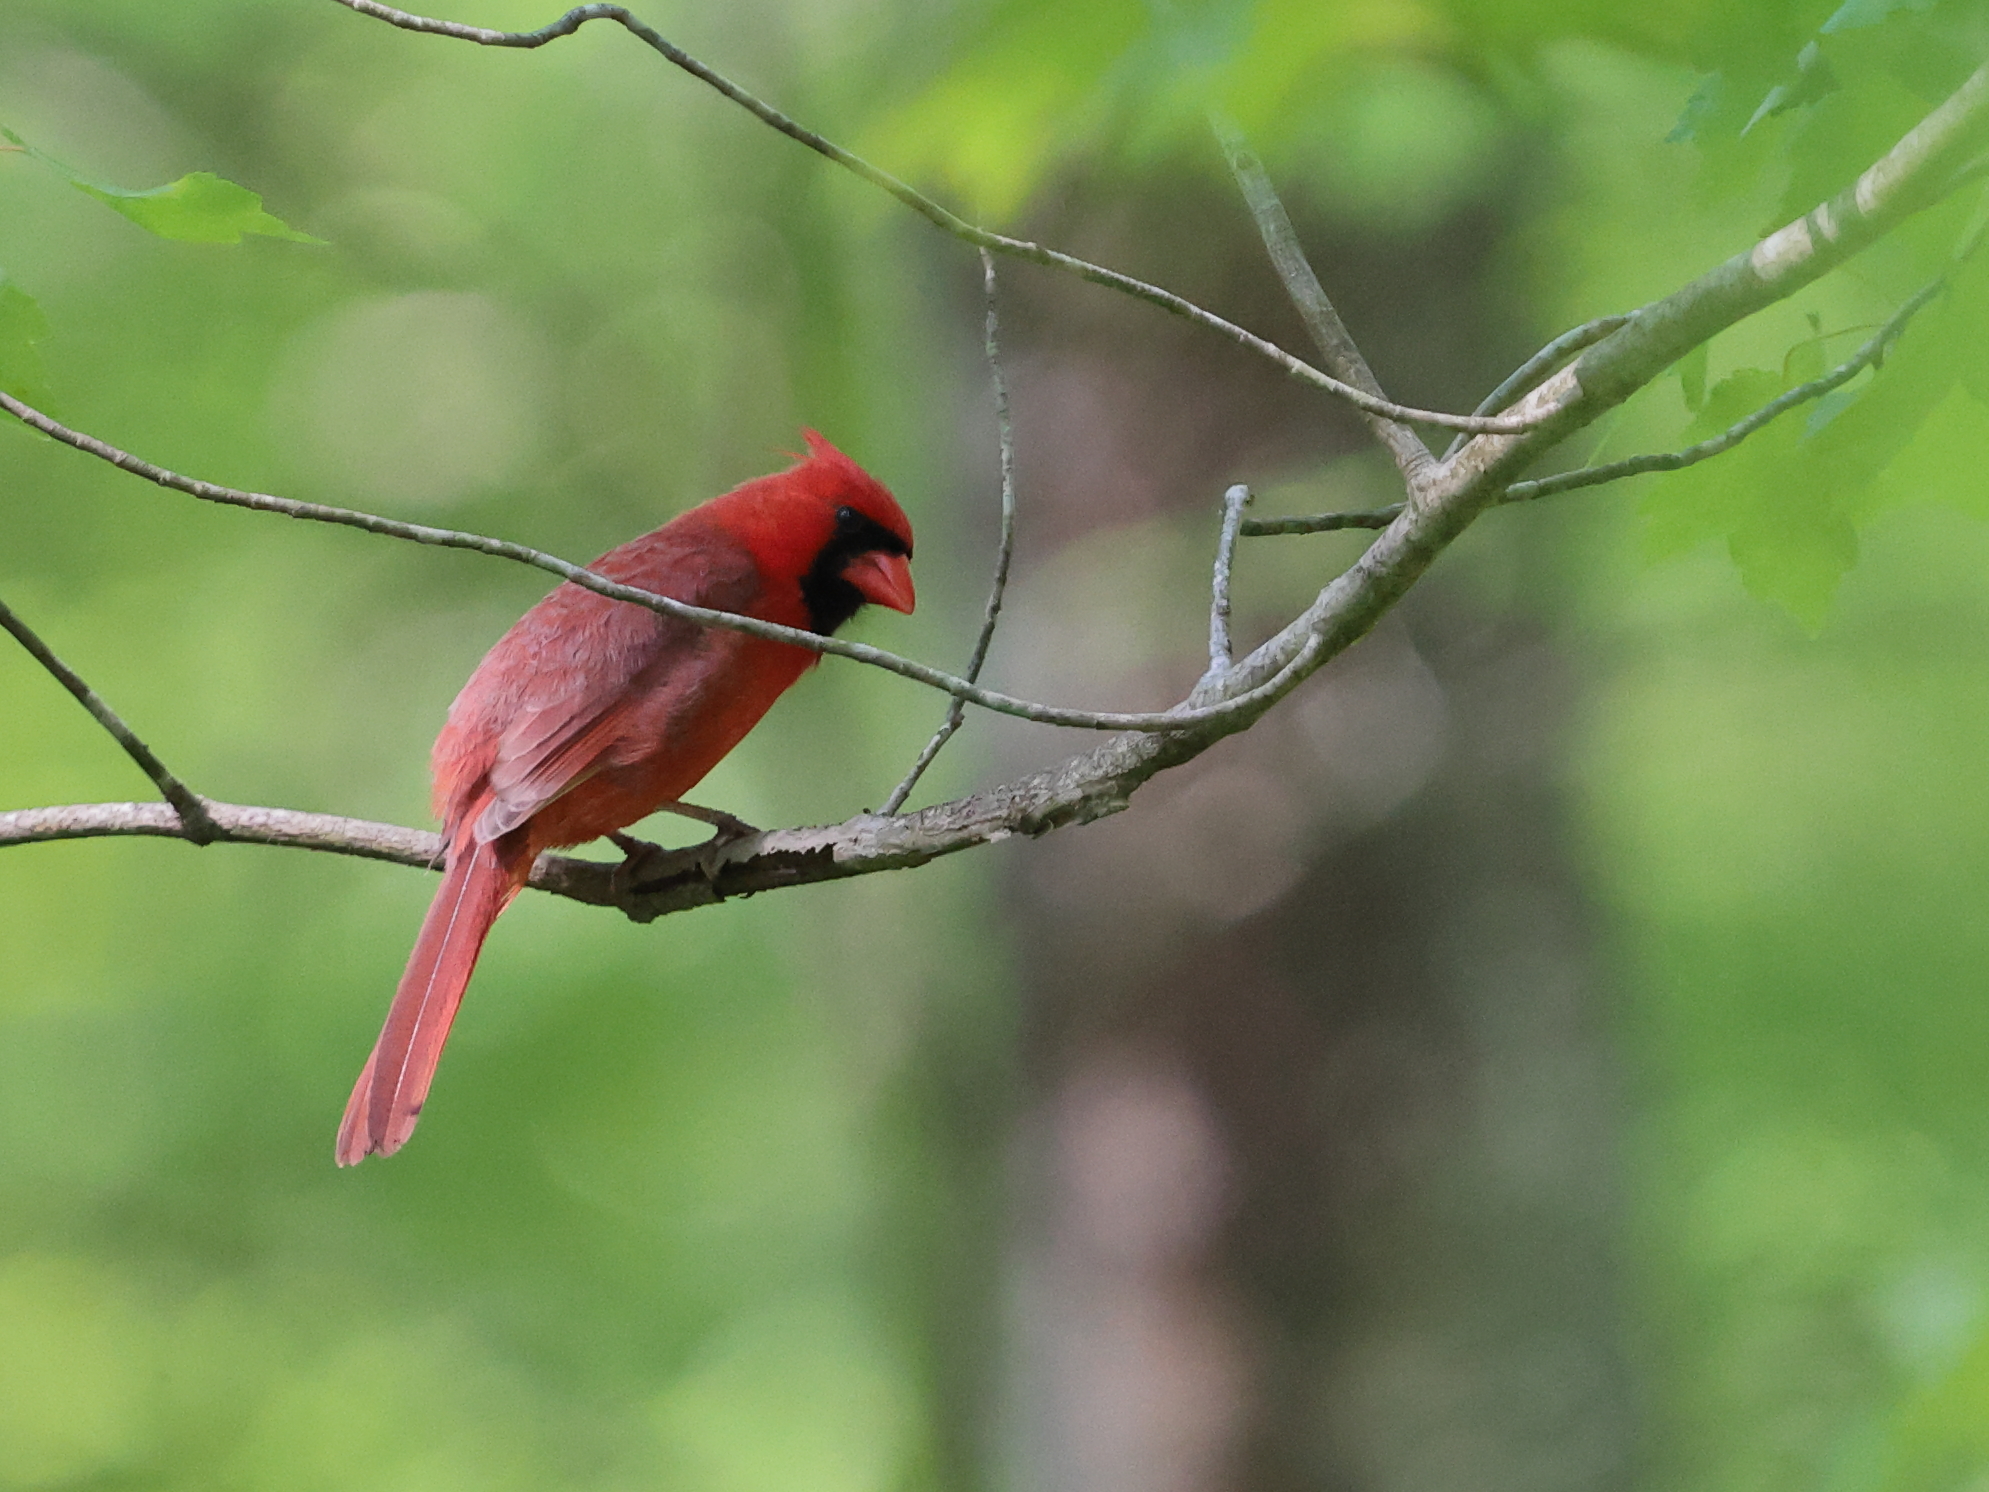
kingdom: Animalia
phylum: Chordata
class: Aves
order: Passeriformes
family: Cardinalidae
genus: Cardinalis
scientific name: Cardinalis cardinalis
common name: Northern cardinal
